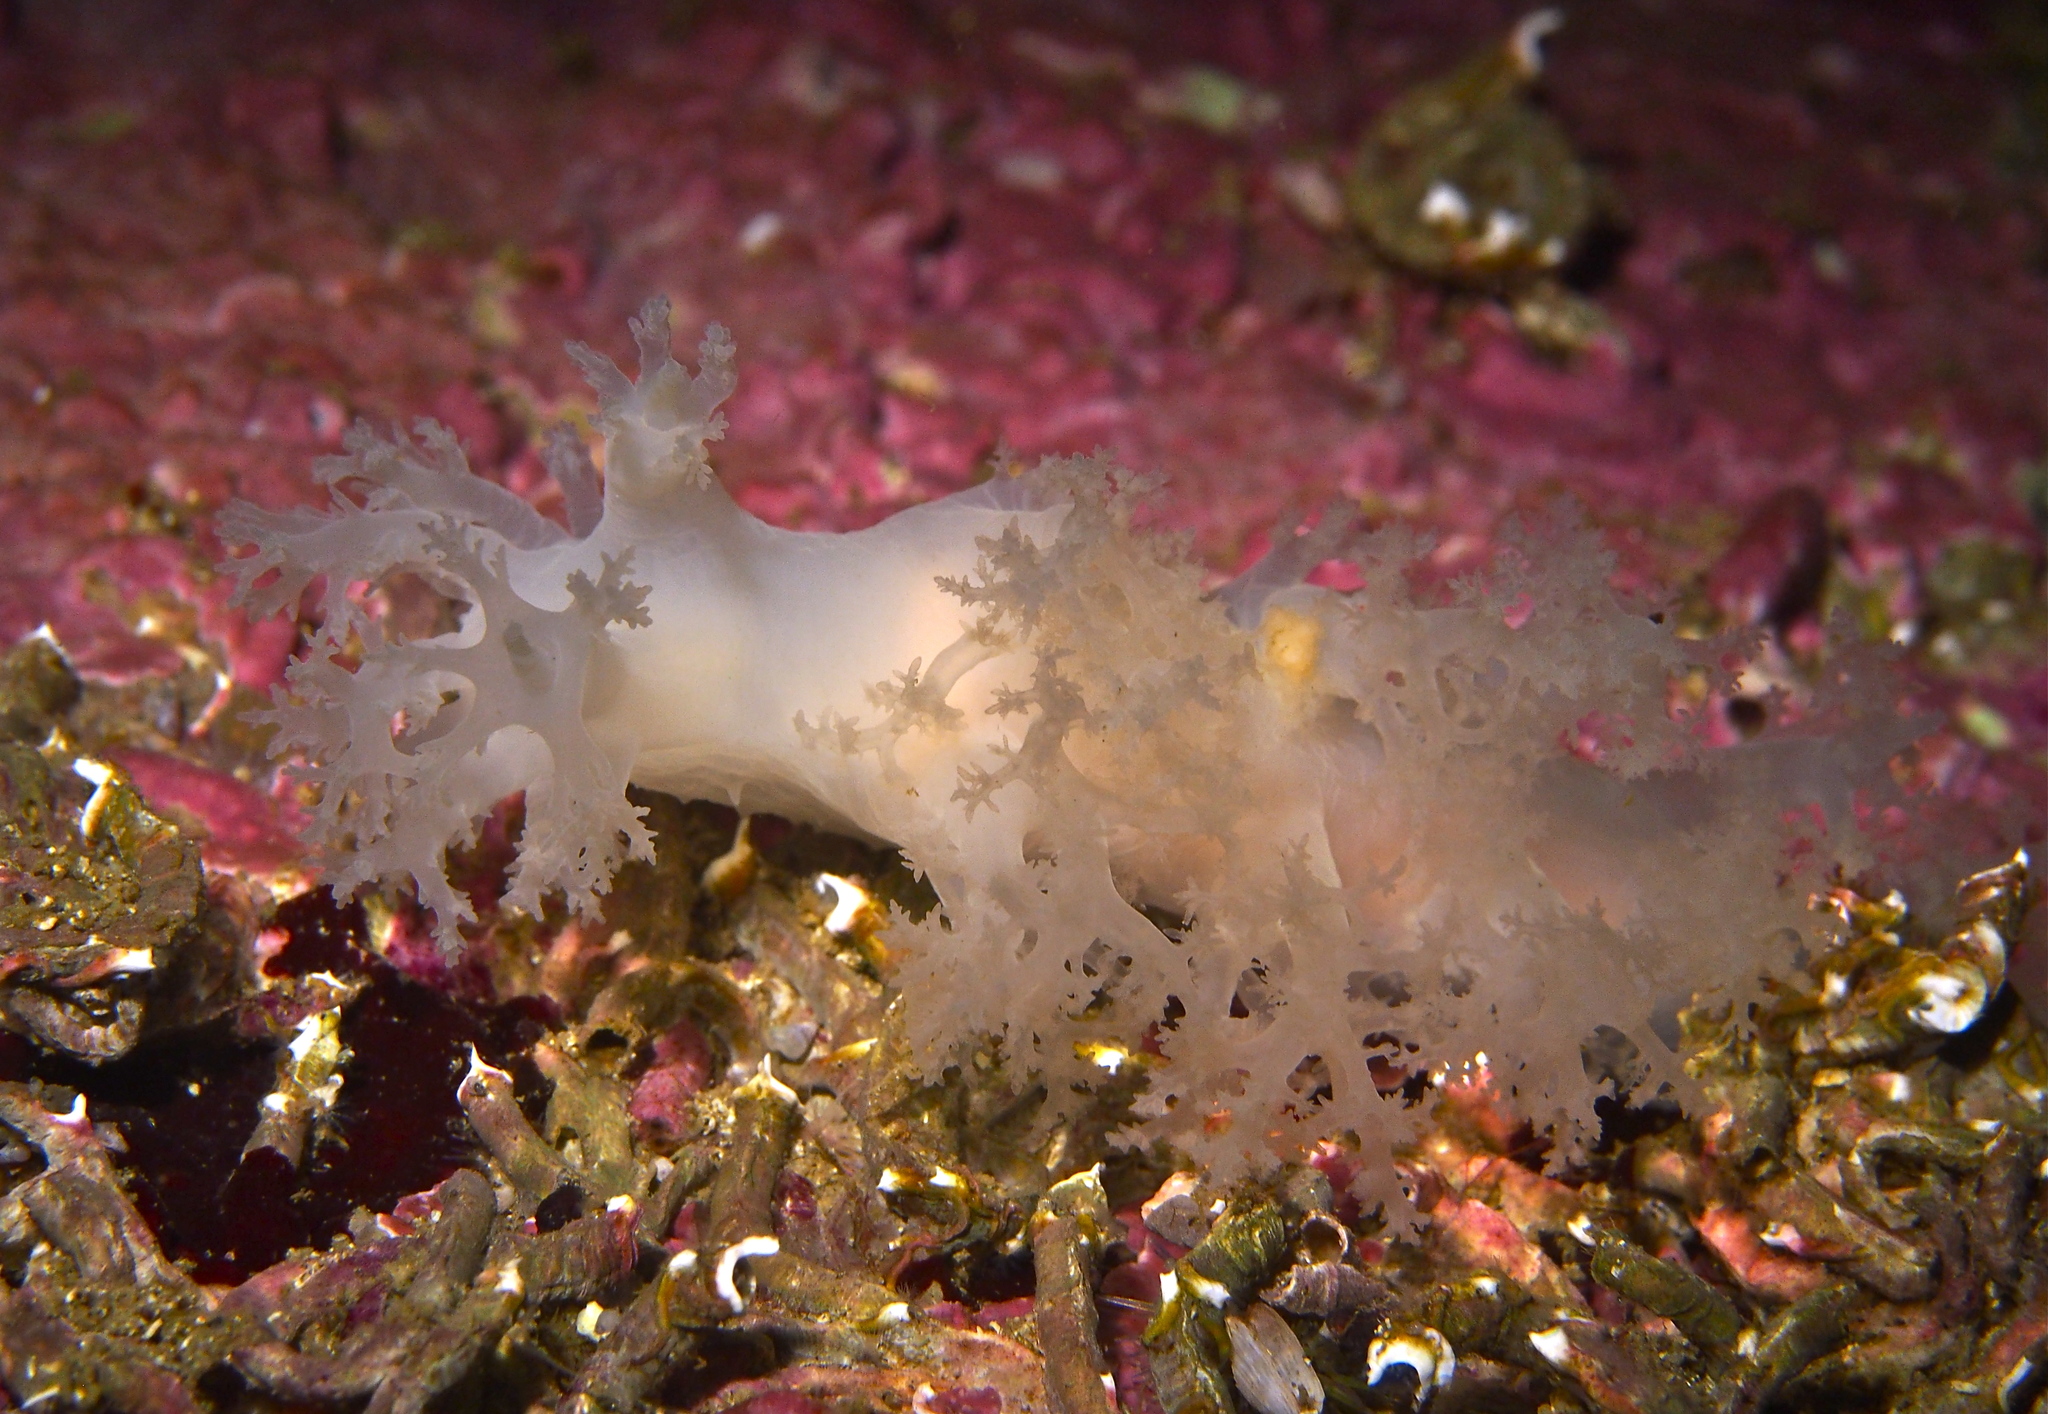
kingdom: Animalia
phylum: Mollusca
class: Gastropoda
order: Nudibranchia
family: Dendronotidae
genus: Dendronotus
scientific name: Dendronotus lacteus
